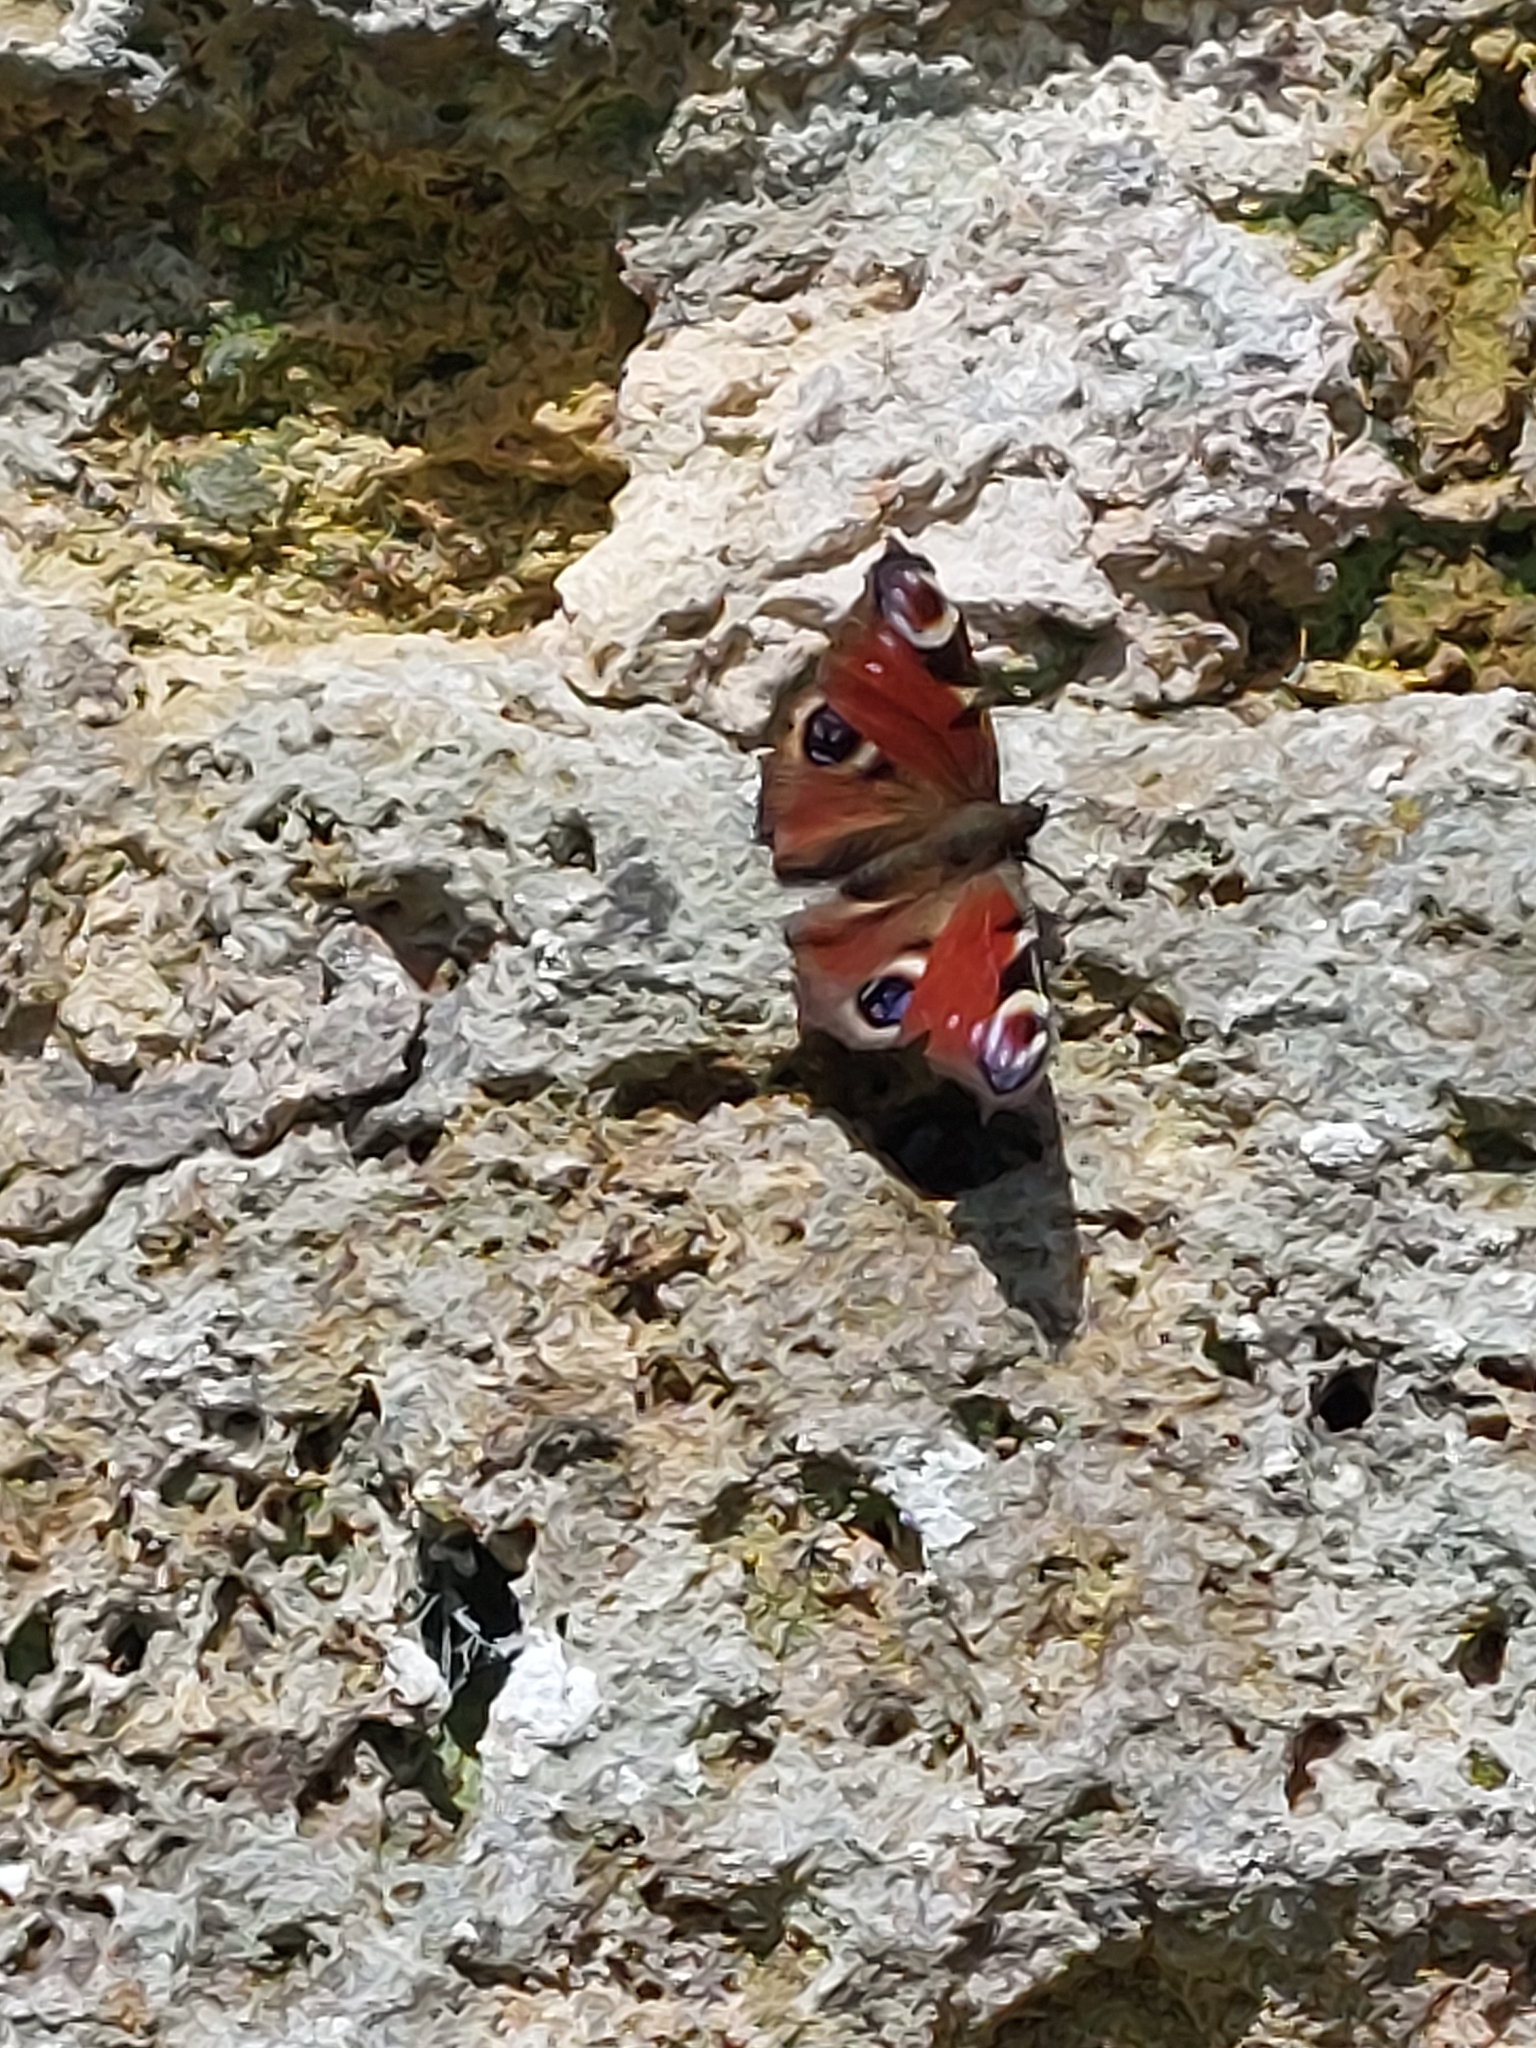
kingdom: Animalia
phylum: Arthropoda
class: Insecta
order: Lepidoptera
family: Nymphalidae
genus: Aglais
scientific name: Aglais io
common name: Peacock
